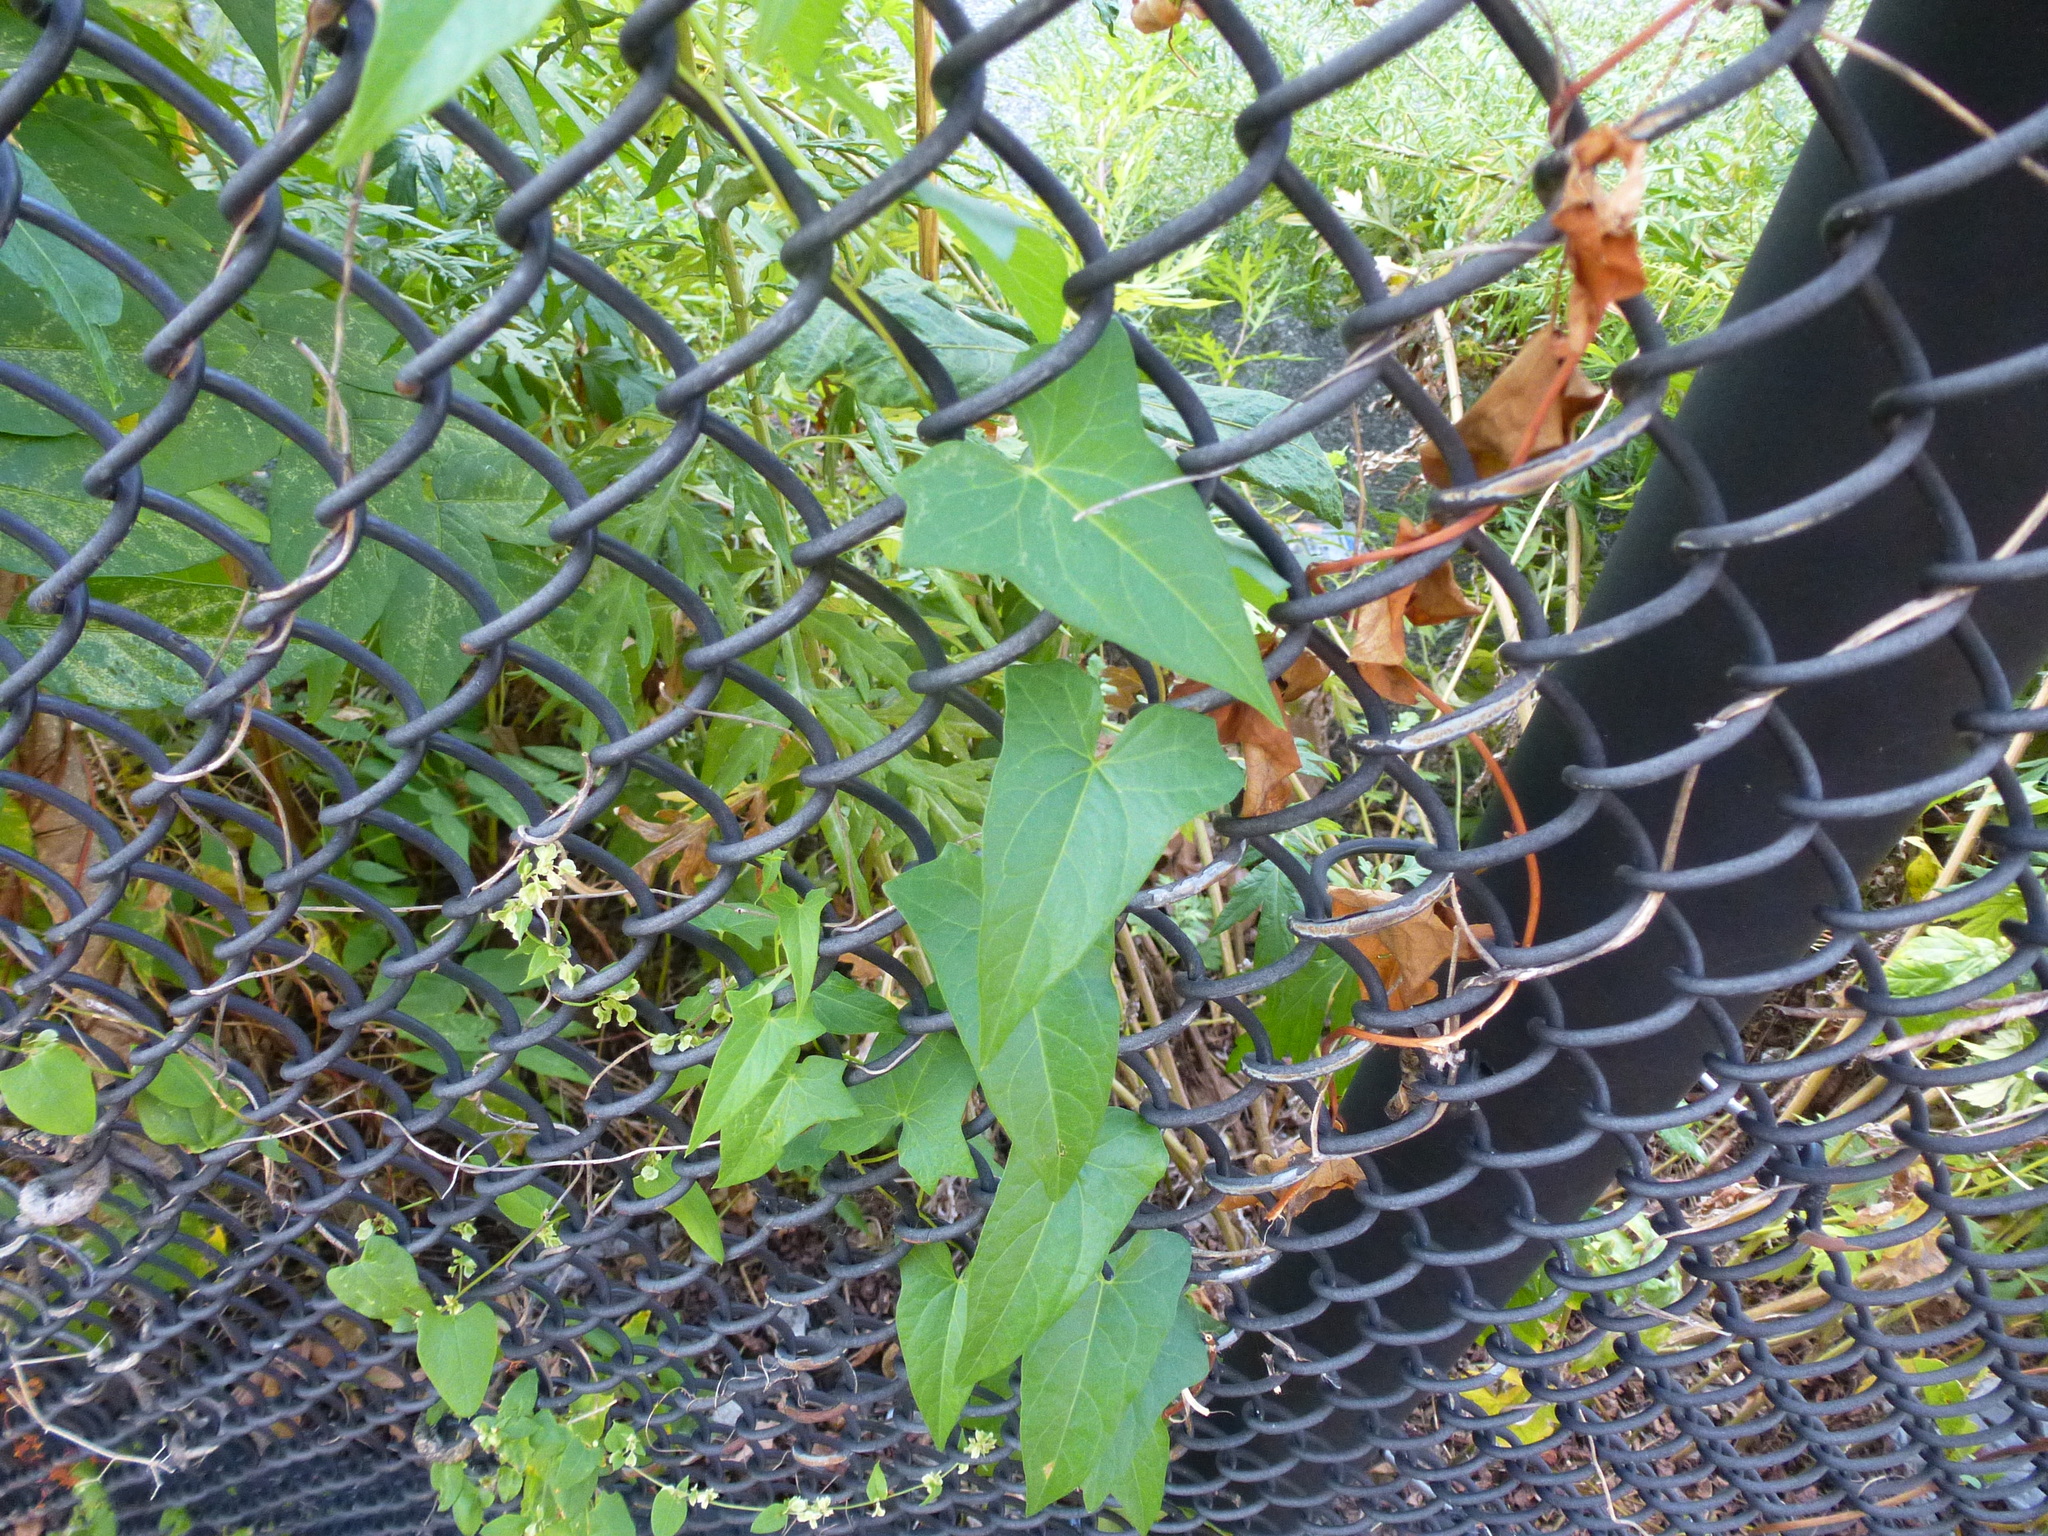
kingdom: Plantae
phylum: Tracheophyta
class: Magnoliopsida
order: Solanales
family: Convolvulaceae
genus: Calystegia
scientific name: Calystegia sepium
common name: Hedge bindweed
